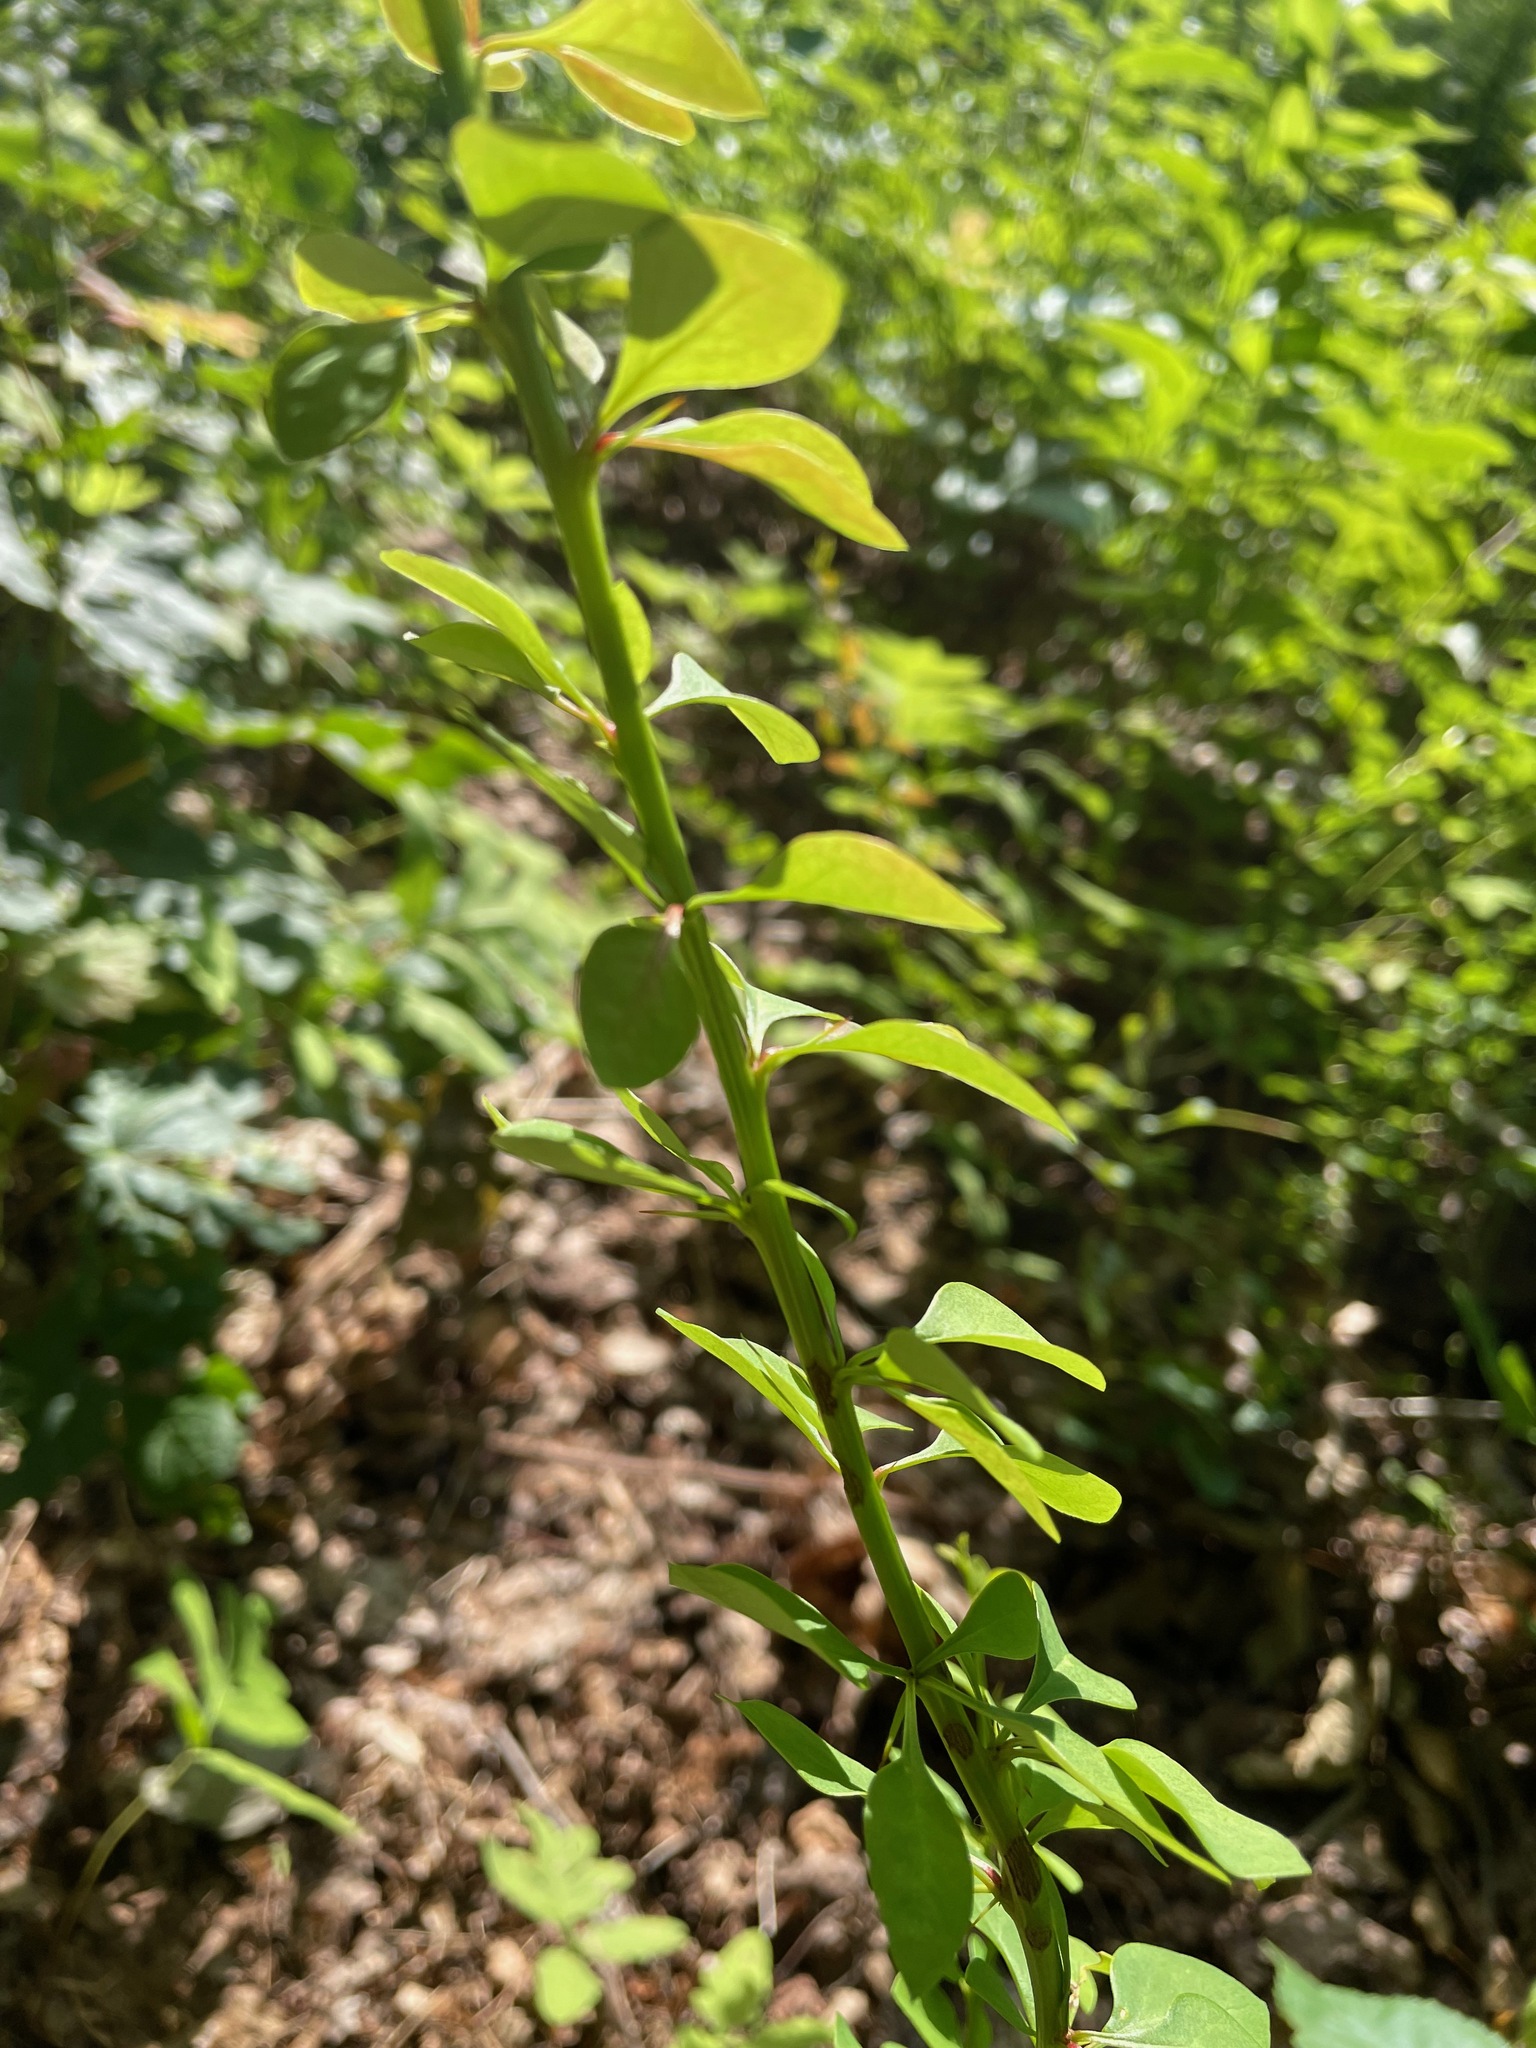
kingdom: Plantae
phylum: Tracheophyta
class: Magnoliopsida
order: Ranunculales
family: Berberidaceae
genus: Berberis
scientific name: Berberis thunbergii
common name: Japanese barberry
